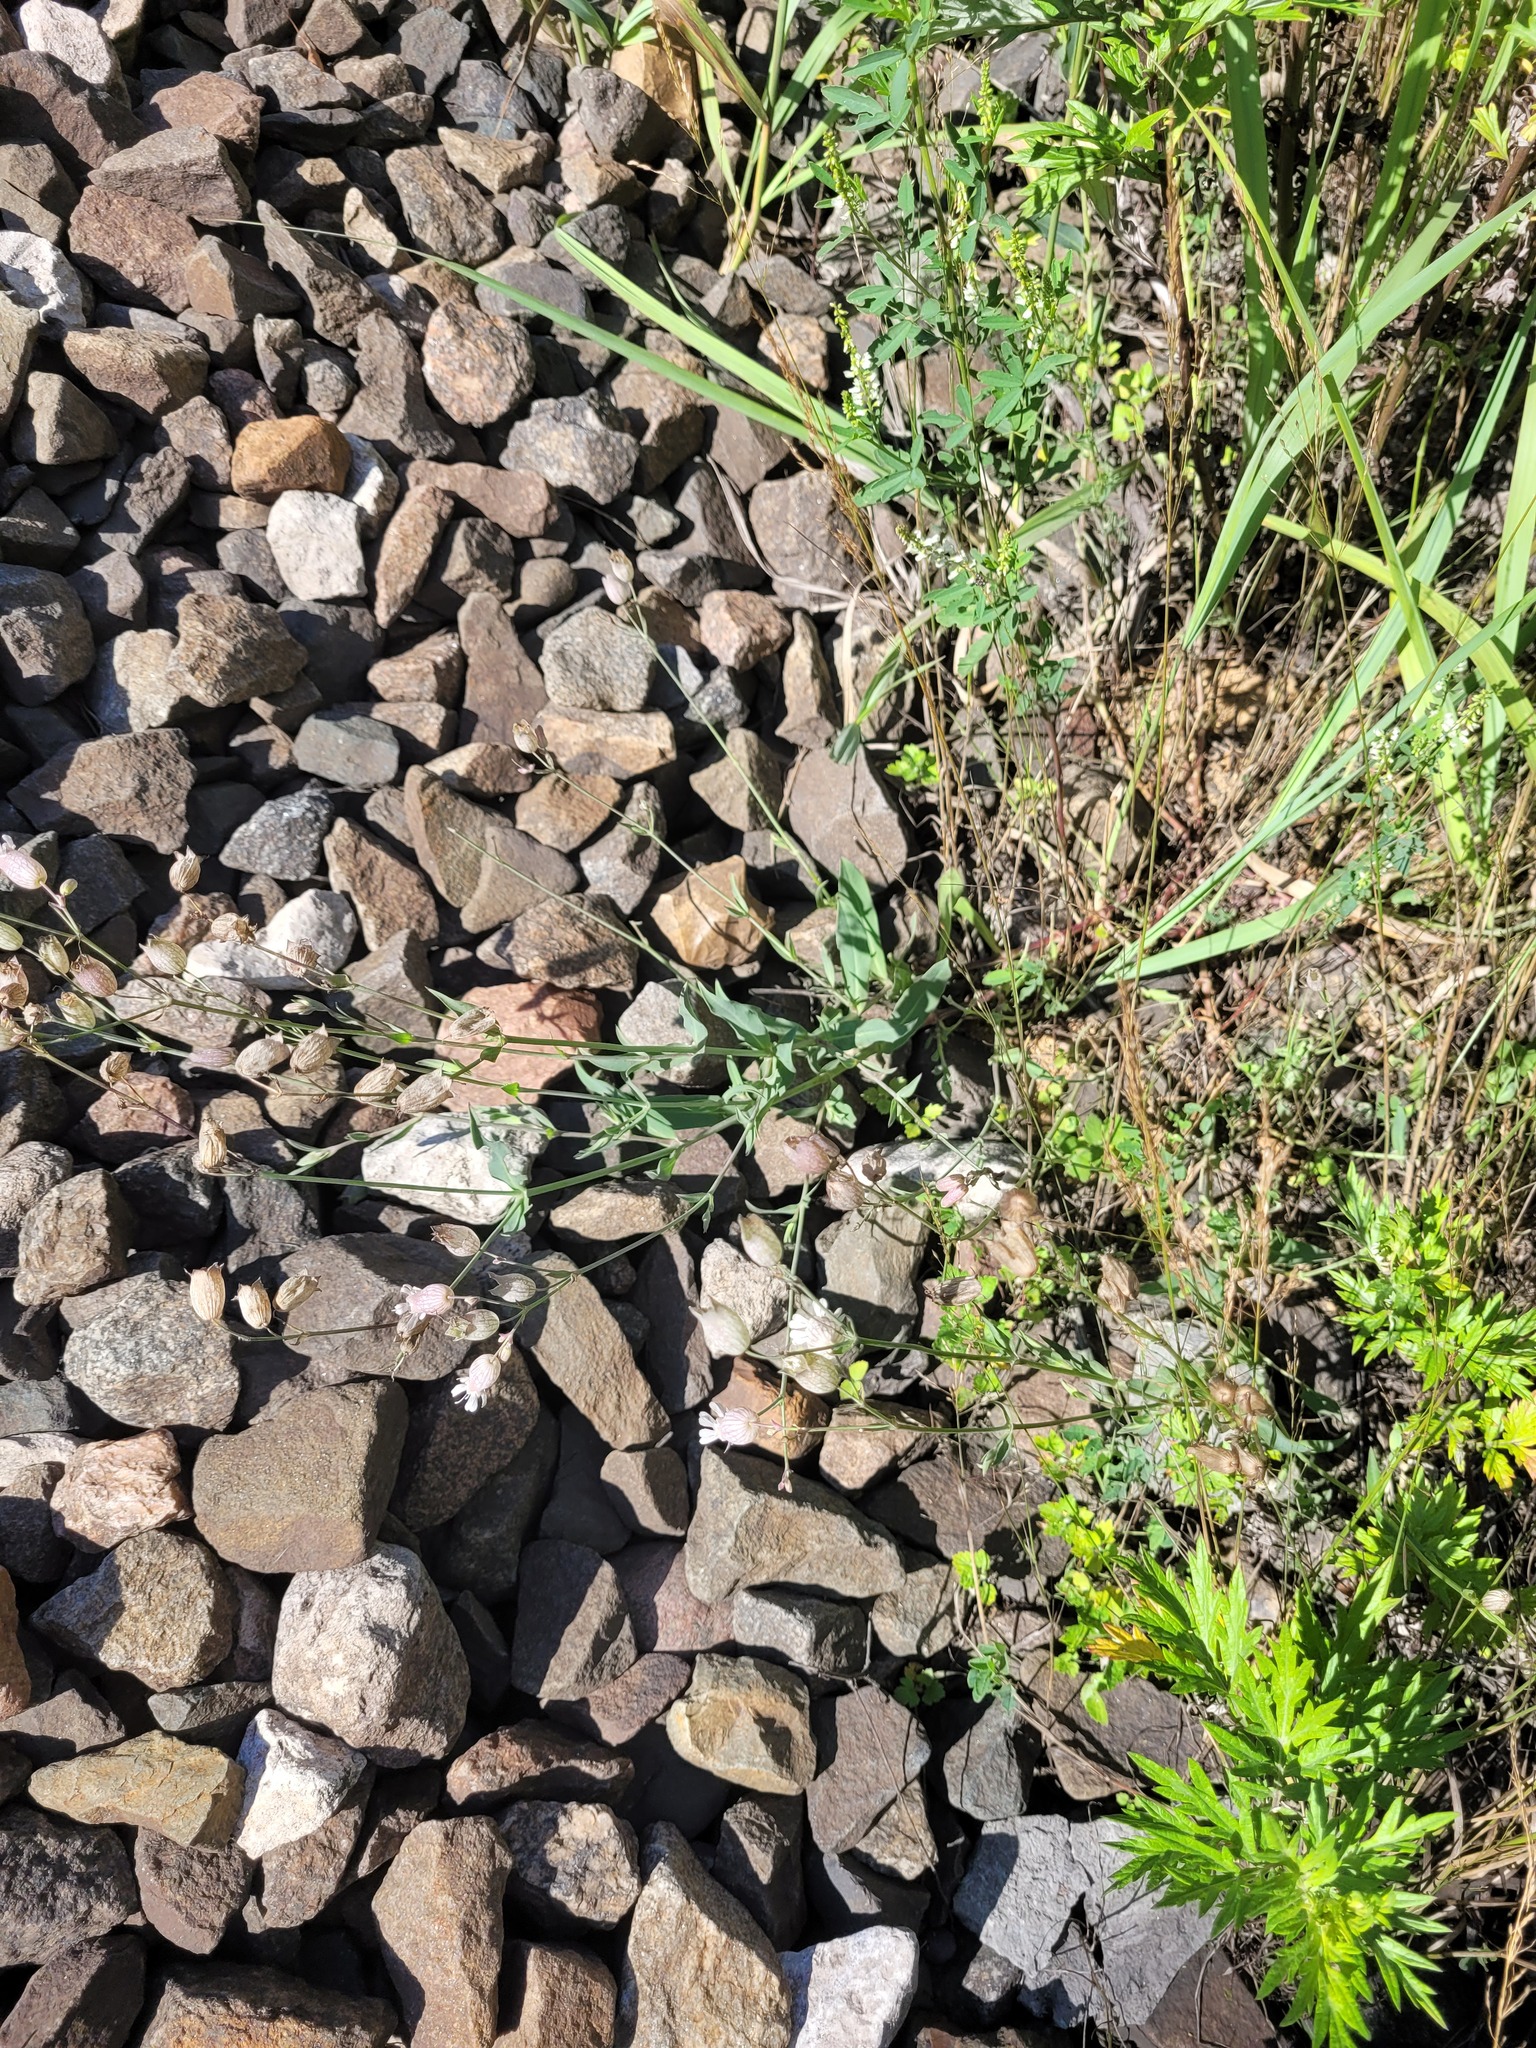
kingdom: Plantae
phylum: Tracheophyta
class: Magnoliopsida
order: Caryophyllales
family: Caryophyllaceae
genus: Silene
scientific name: Silene vulgaris
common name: Bladder campion
